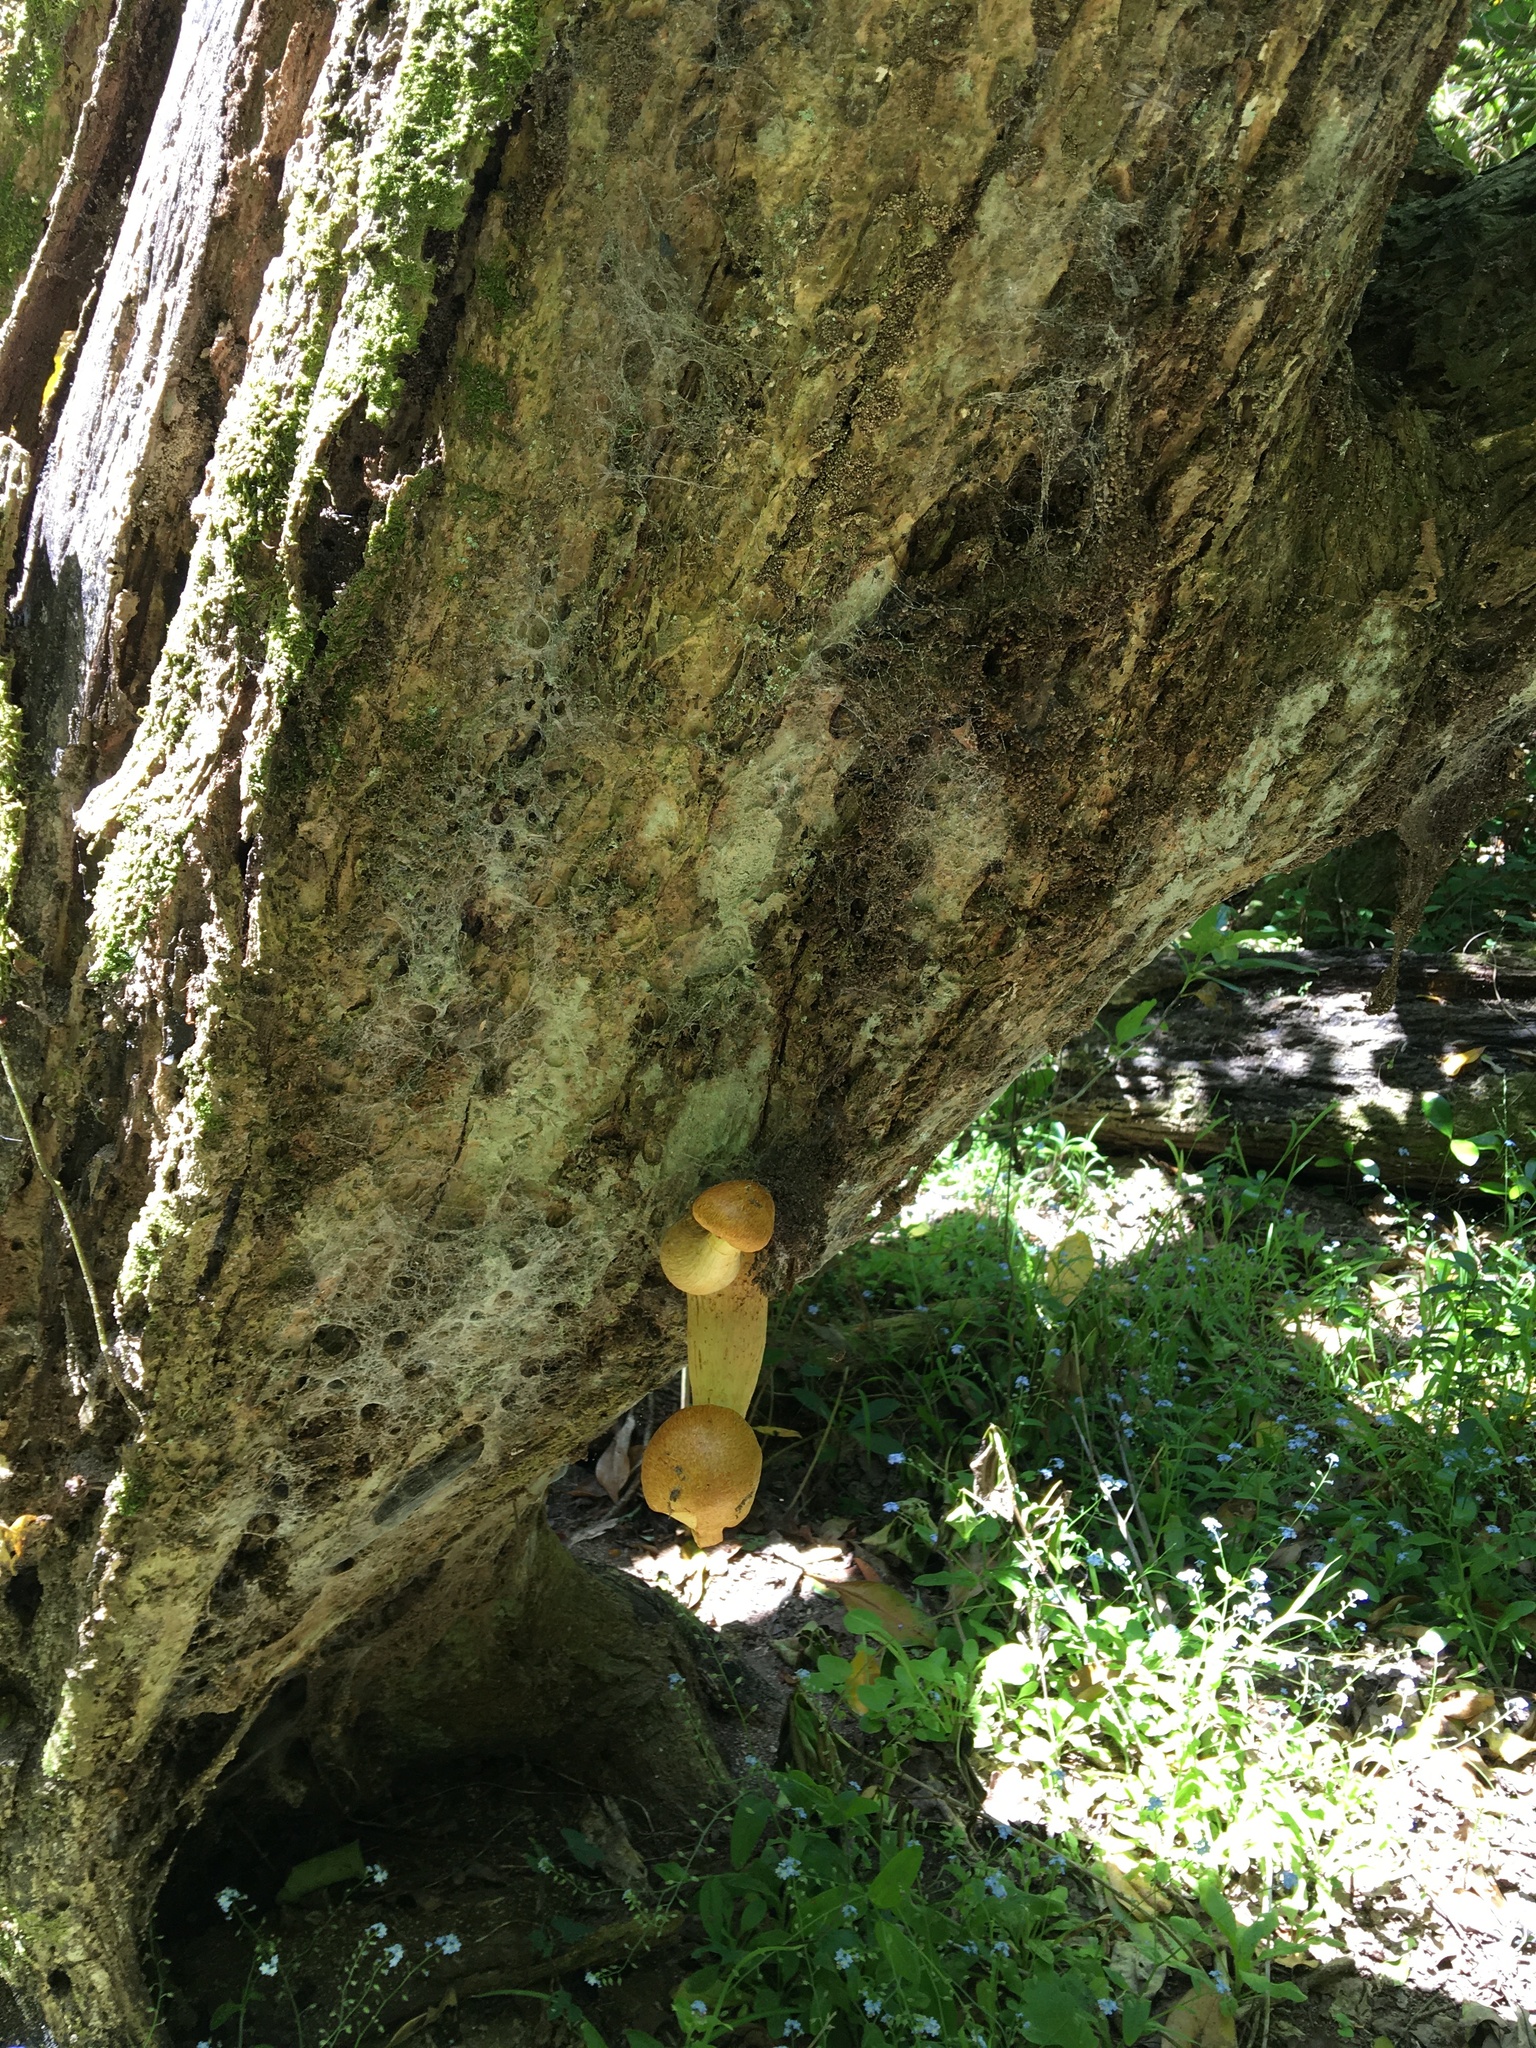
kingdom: Fungi
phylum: Basidiomycota
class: Agaricomycetes
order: Agaricales
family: Hymenogastraceae
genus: Gymnopilus
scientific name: Gymnopilus junonius
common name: Spectacular rustgill
